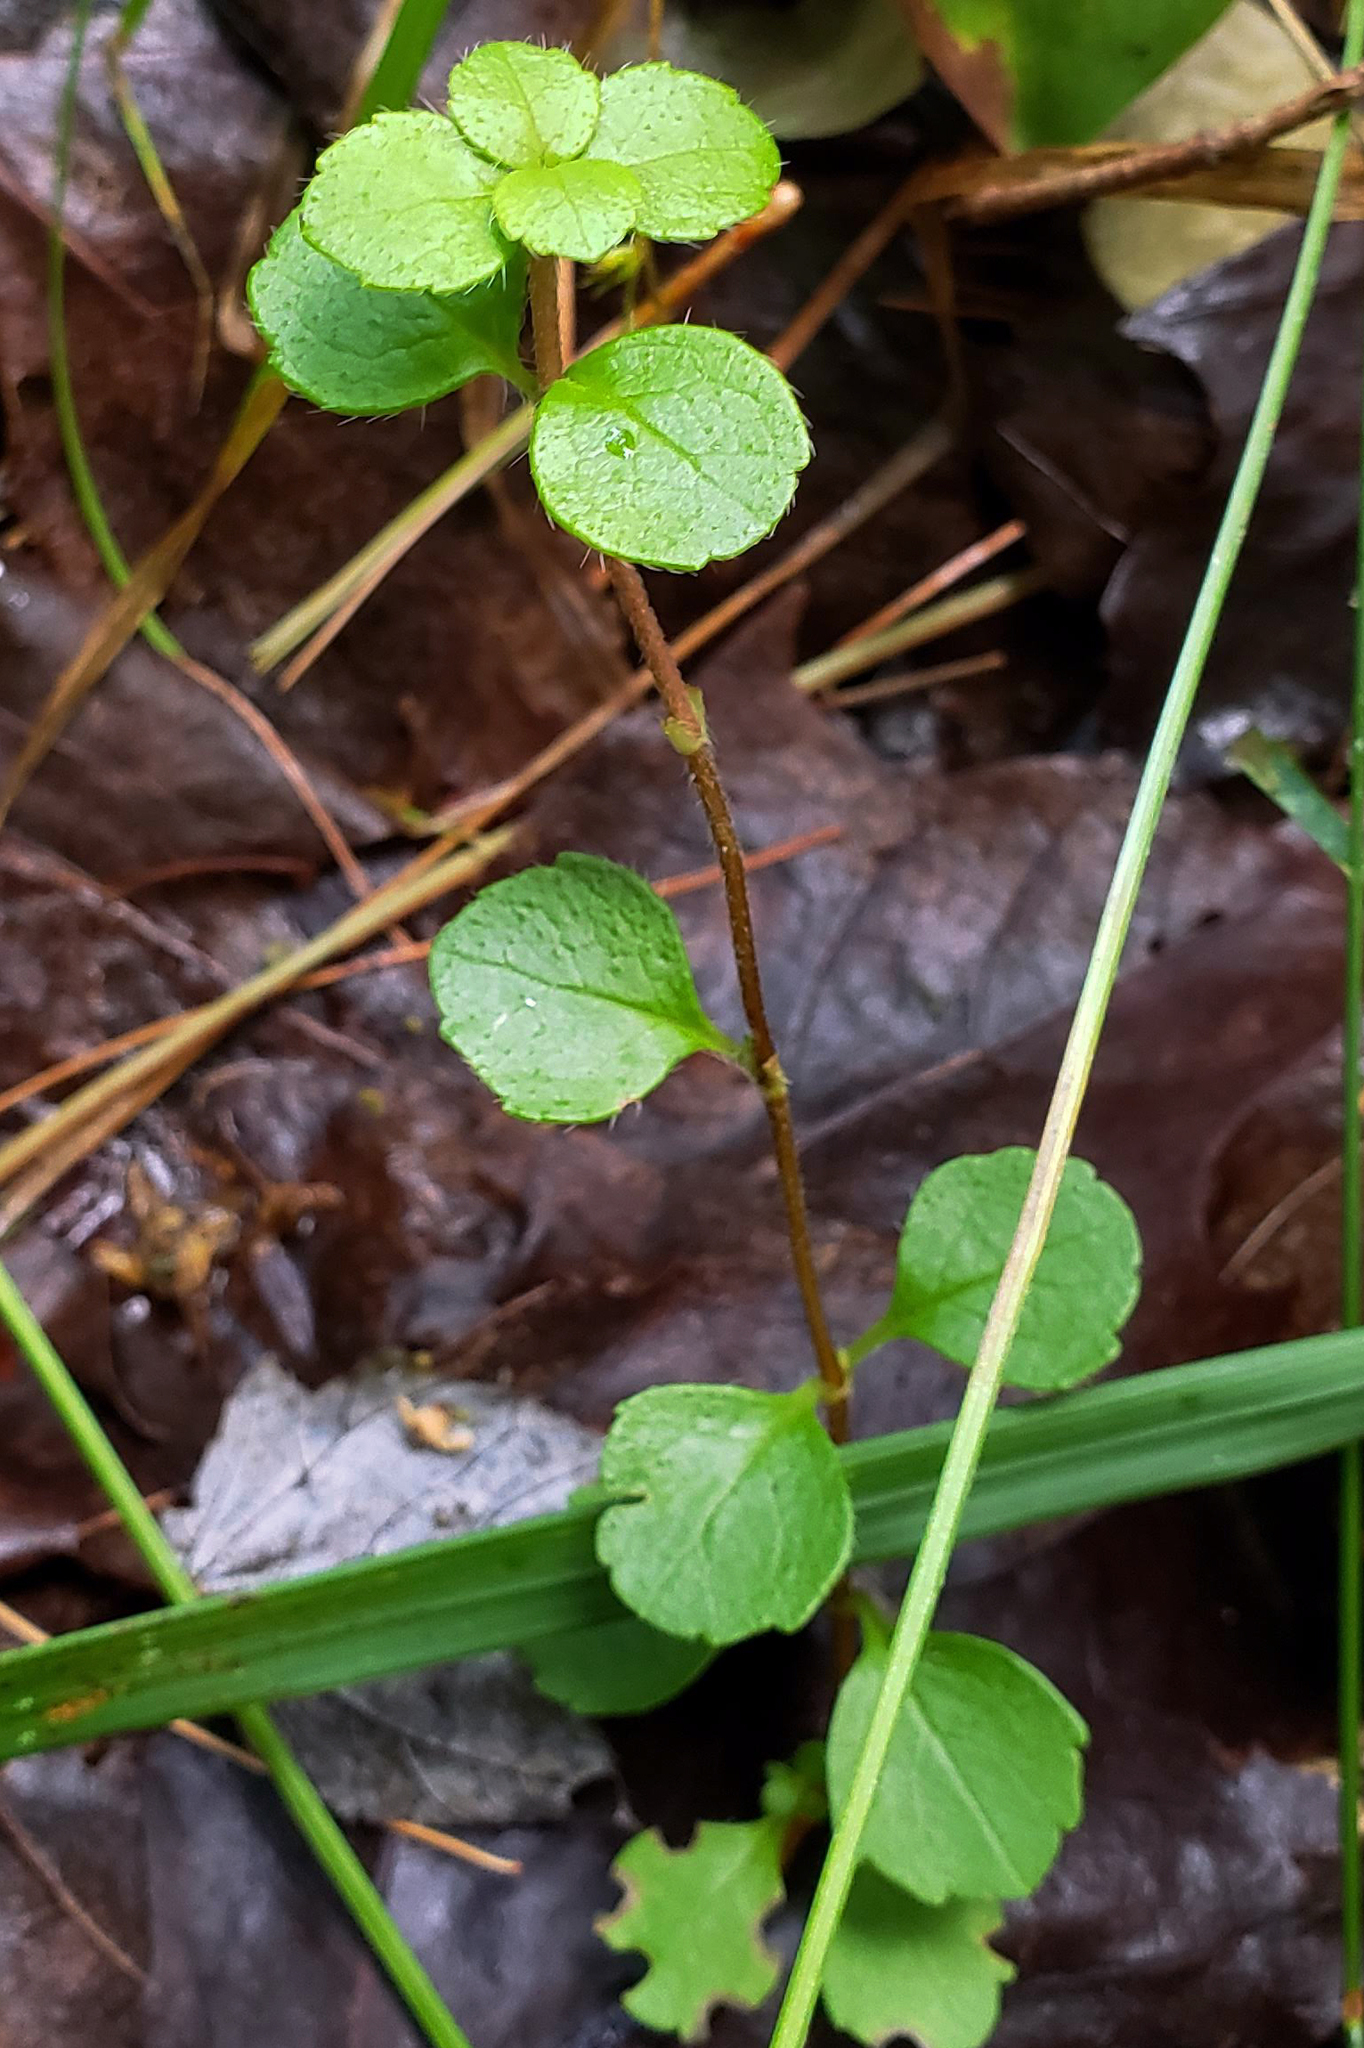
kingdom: Plantae
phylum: Tracheophyta
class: Magnoliopsida
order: Dipsacales
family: Caprifoliaceae
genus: Linnaea
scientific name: Linnaea borealis
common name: Twinflower
